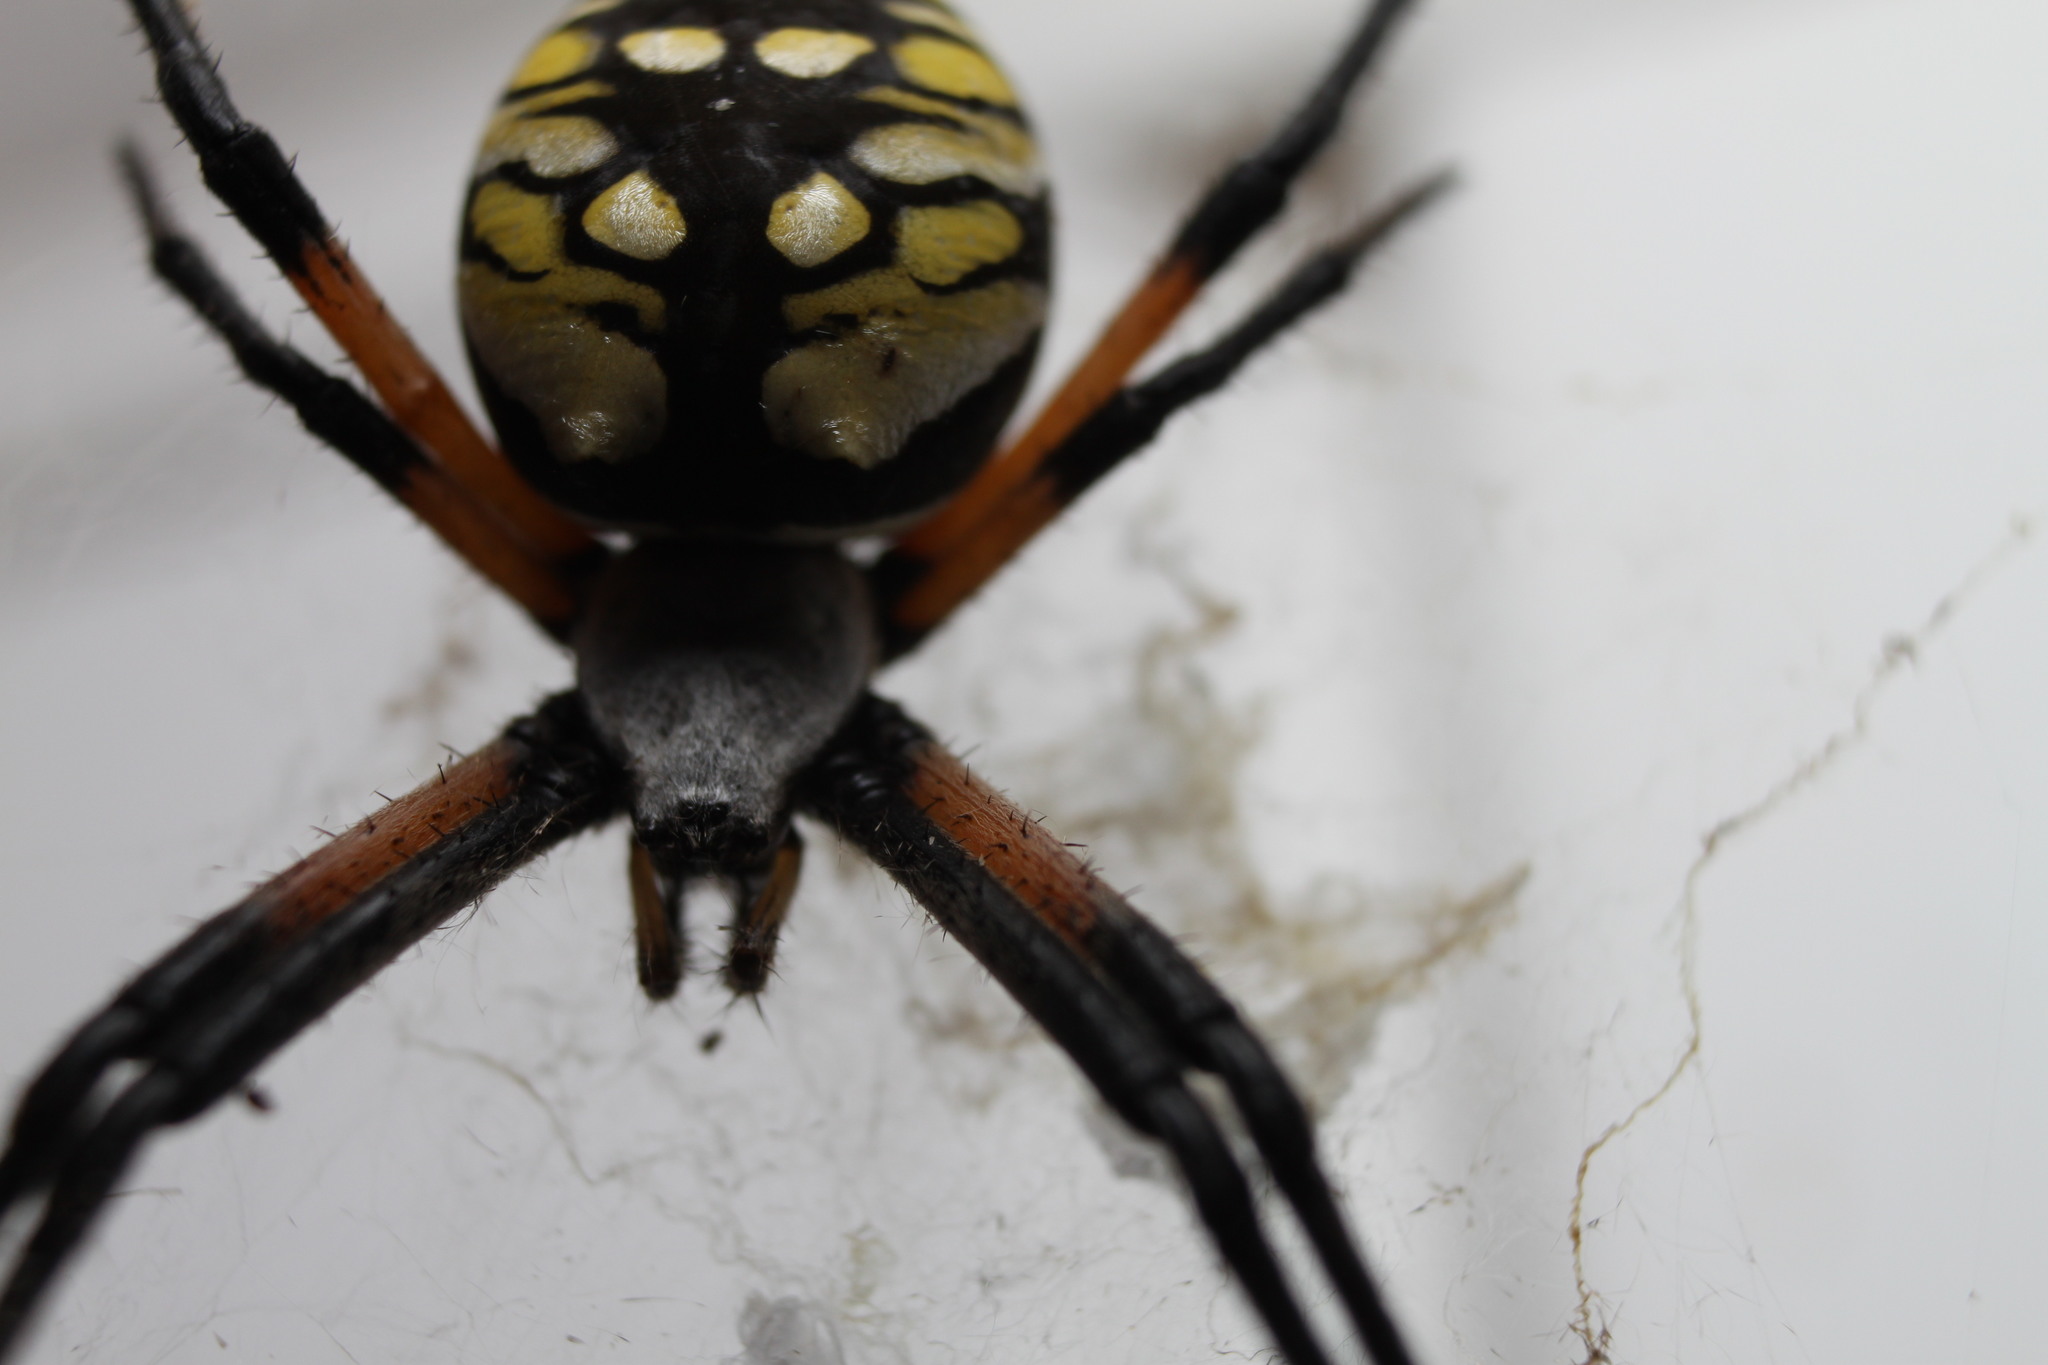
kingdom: Animalia
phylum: Arthropoda
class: Arachnida
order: Araneae
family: Araneidae
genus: Argiope
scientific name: Argiope aurantia
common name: Orb weavers
